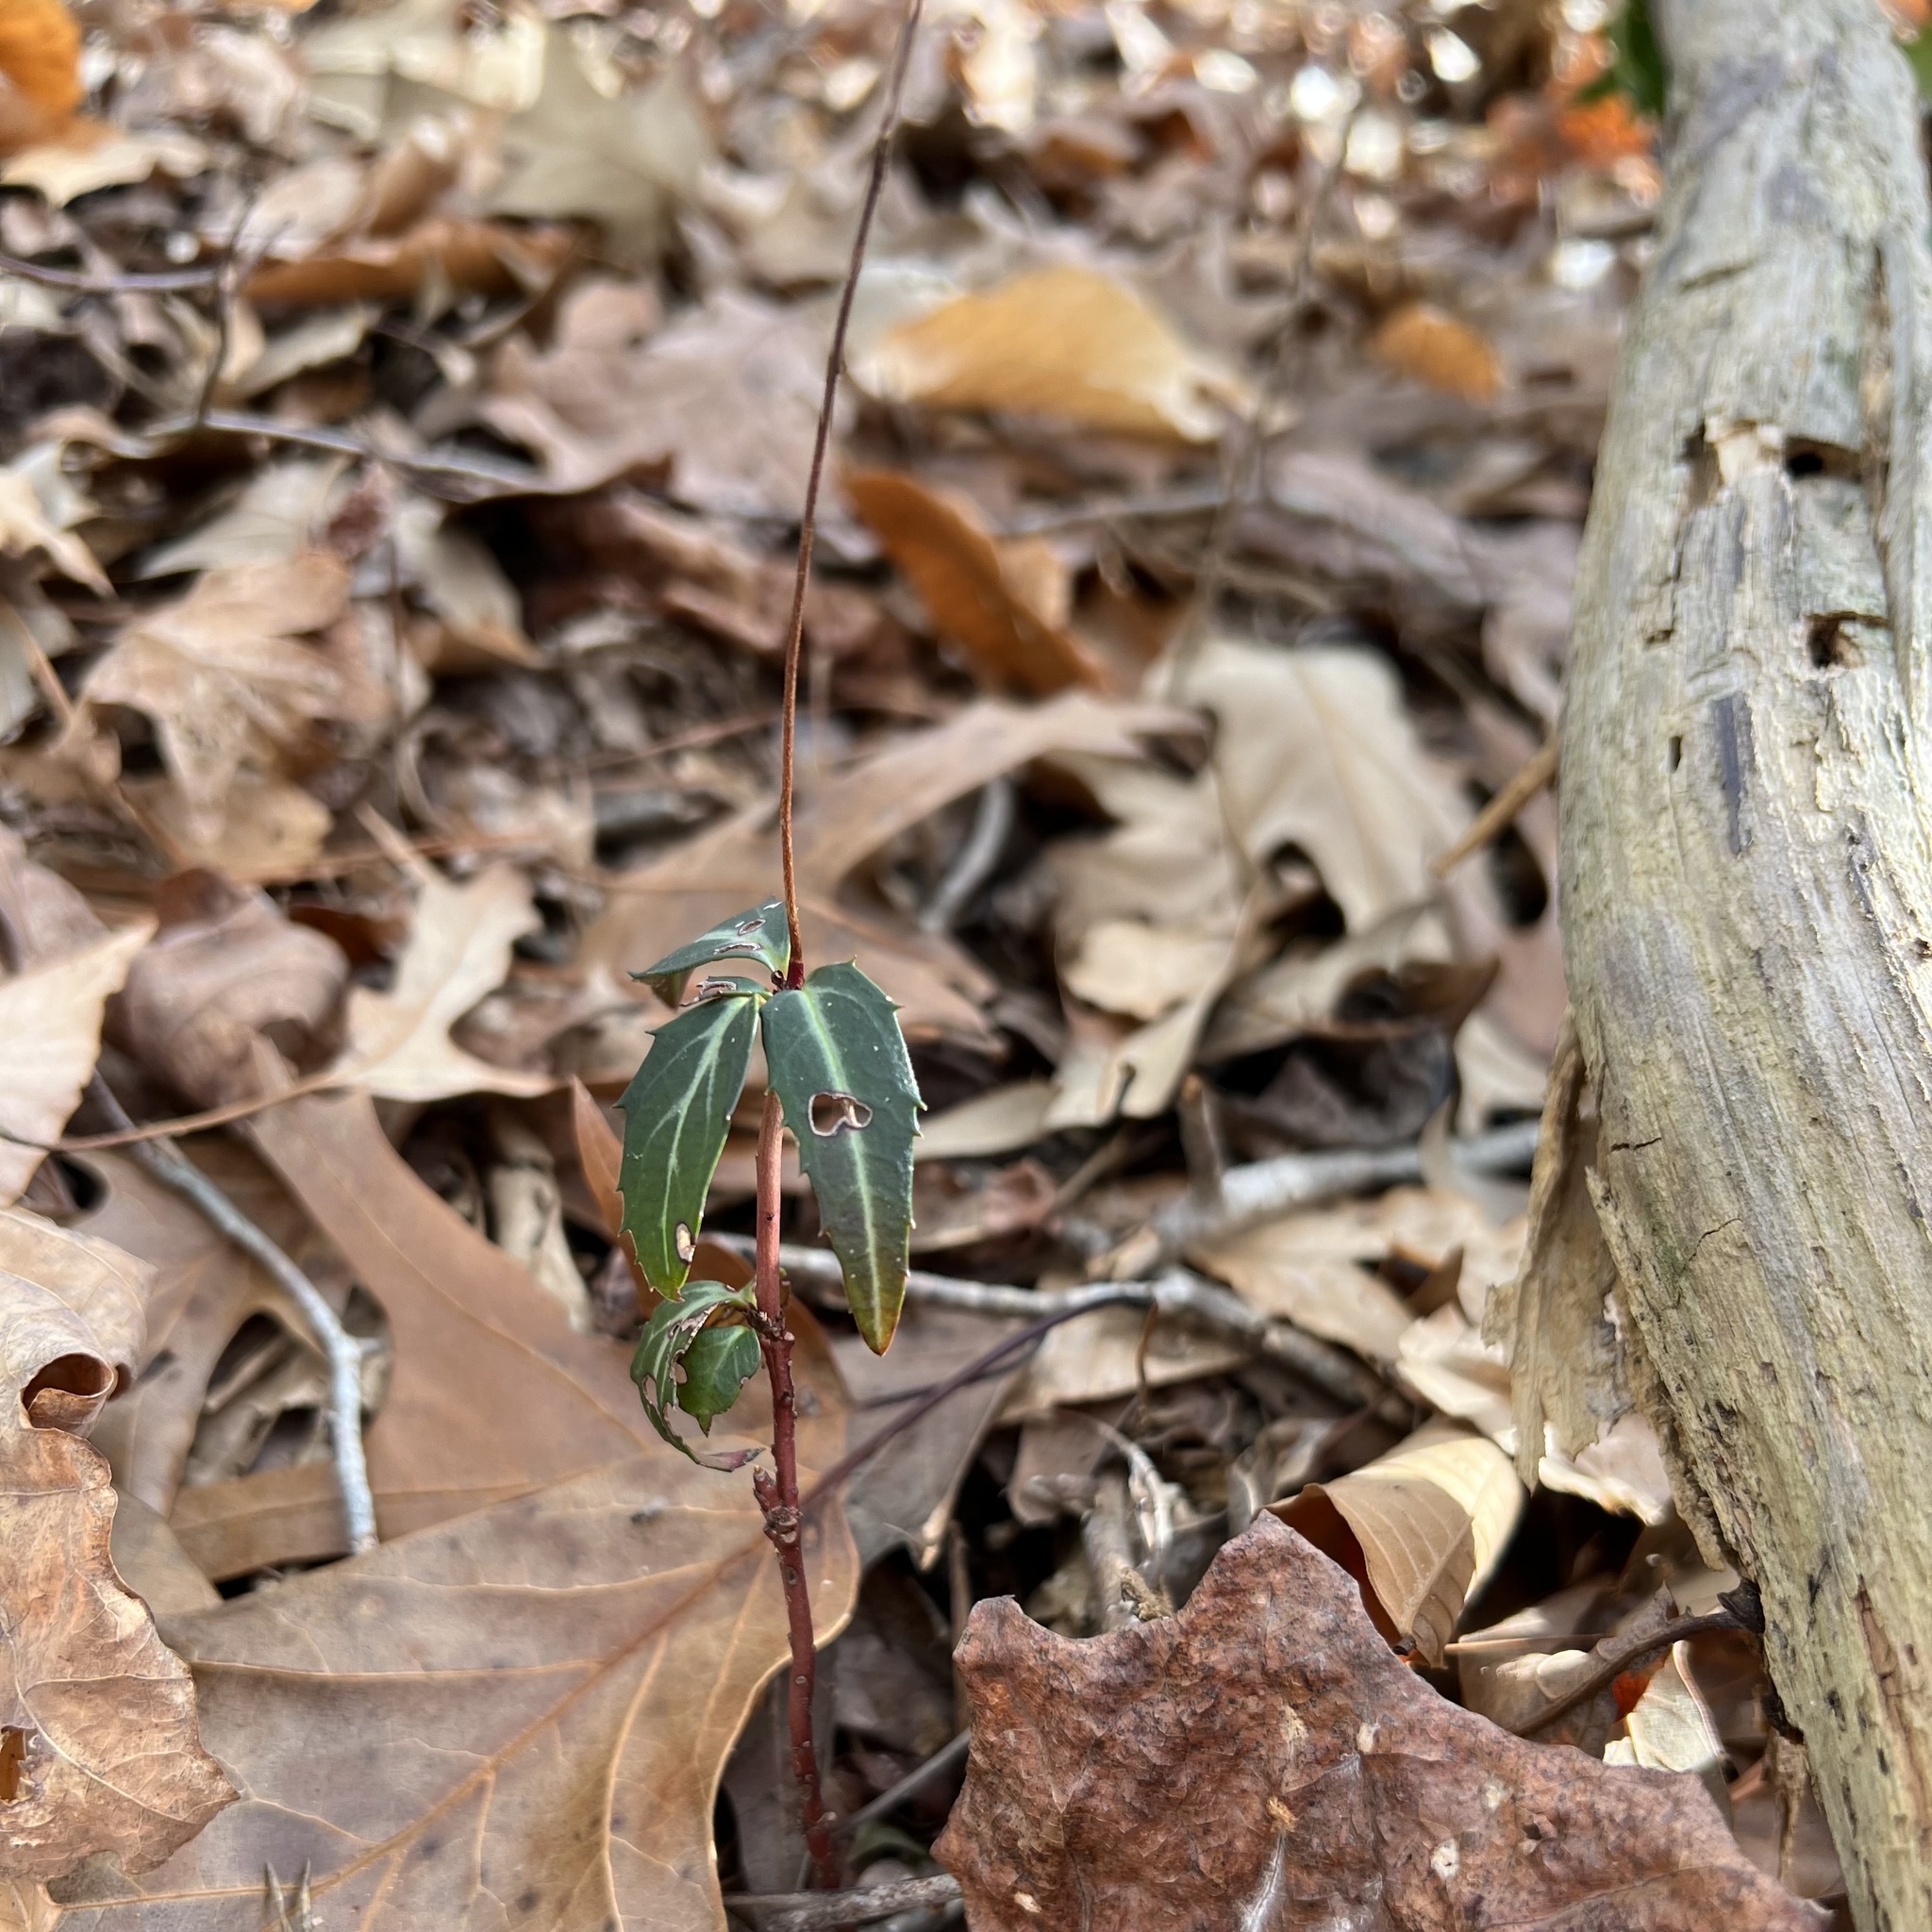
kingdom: Plantae
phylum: Tracheophyta
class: Magnoliopsida
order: Ericales
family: Ericaceae
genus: Chimaphila
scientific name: Chimaphila maculata
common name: Spotted pipsissewa
